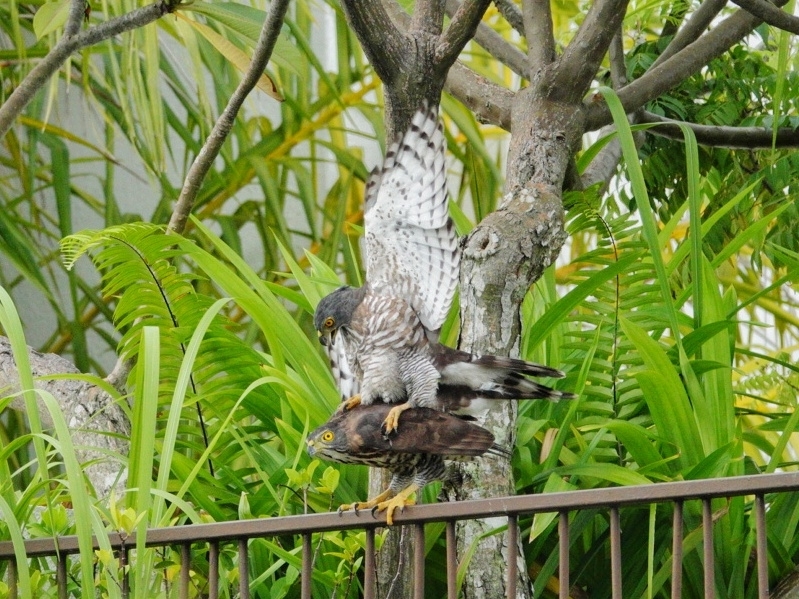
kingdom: Animalia
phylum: Chordata
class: Aves
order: Accipitriformes
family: Accipitridae
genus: Accipiter
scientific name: Accipiter trivirgatus
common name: Crested goshawk
